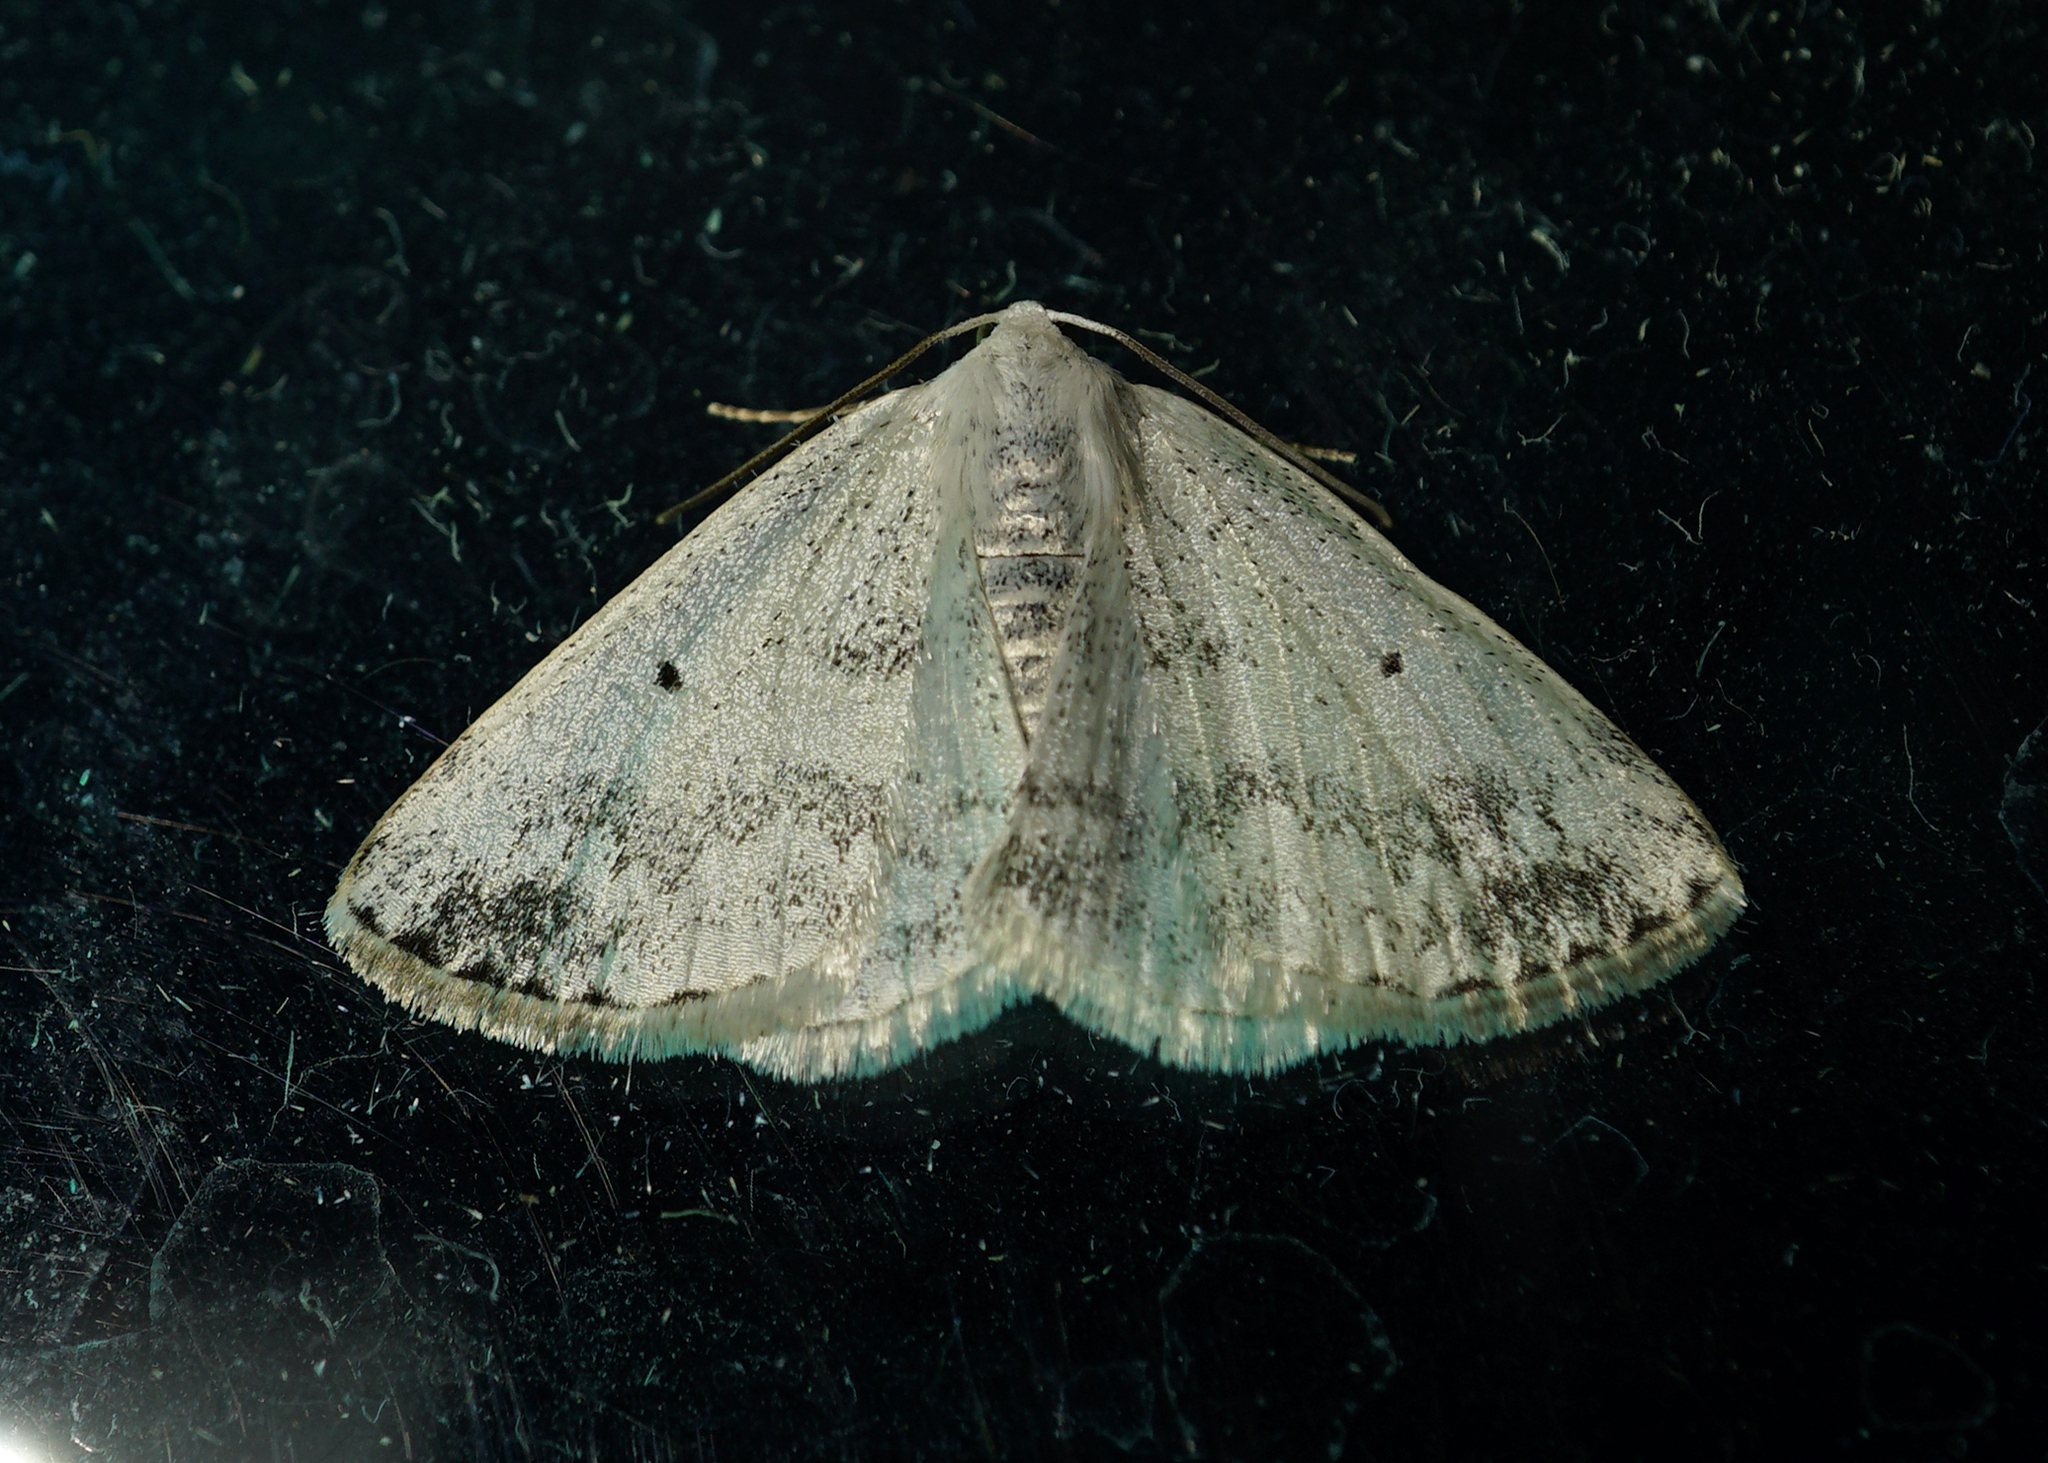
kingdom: Animalia
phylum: Arthropoda
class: Insecta
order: Lepidoptera
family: Geometridae
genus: Lomographa
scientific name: Lomographa temerata
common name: Clouded silver
